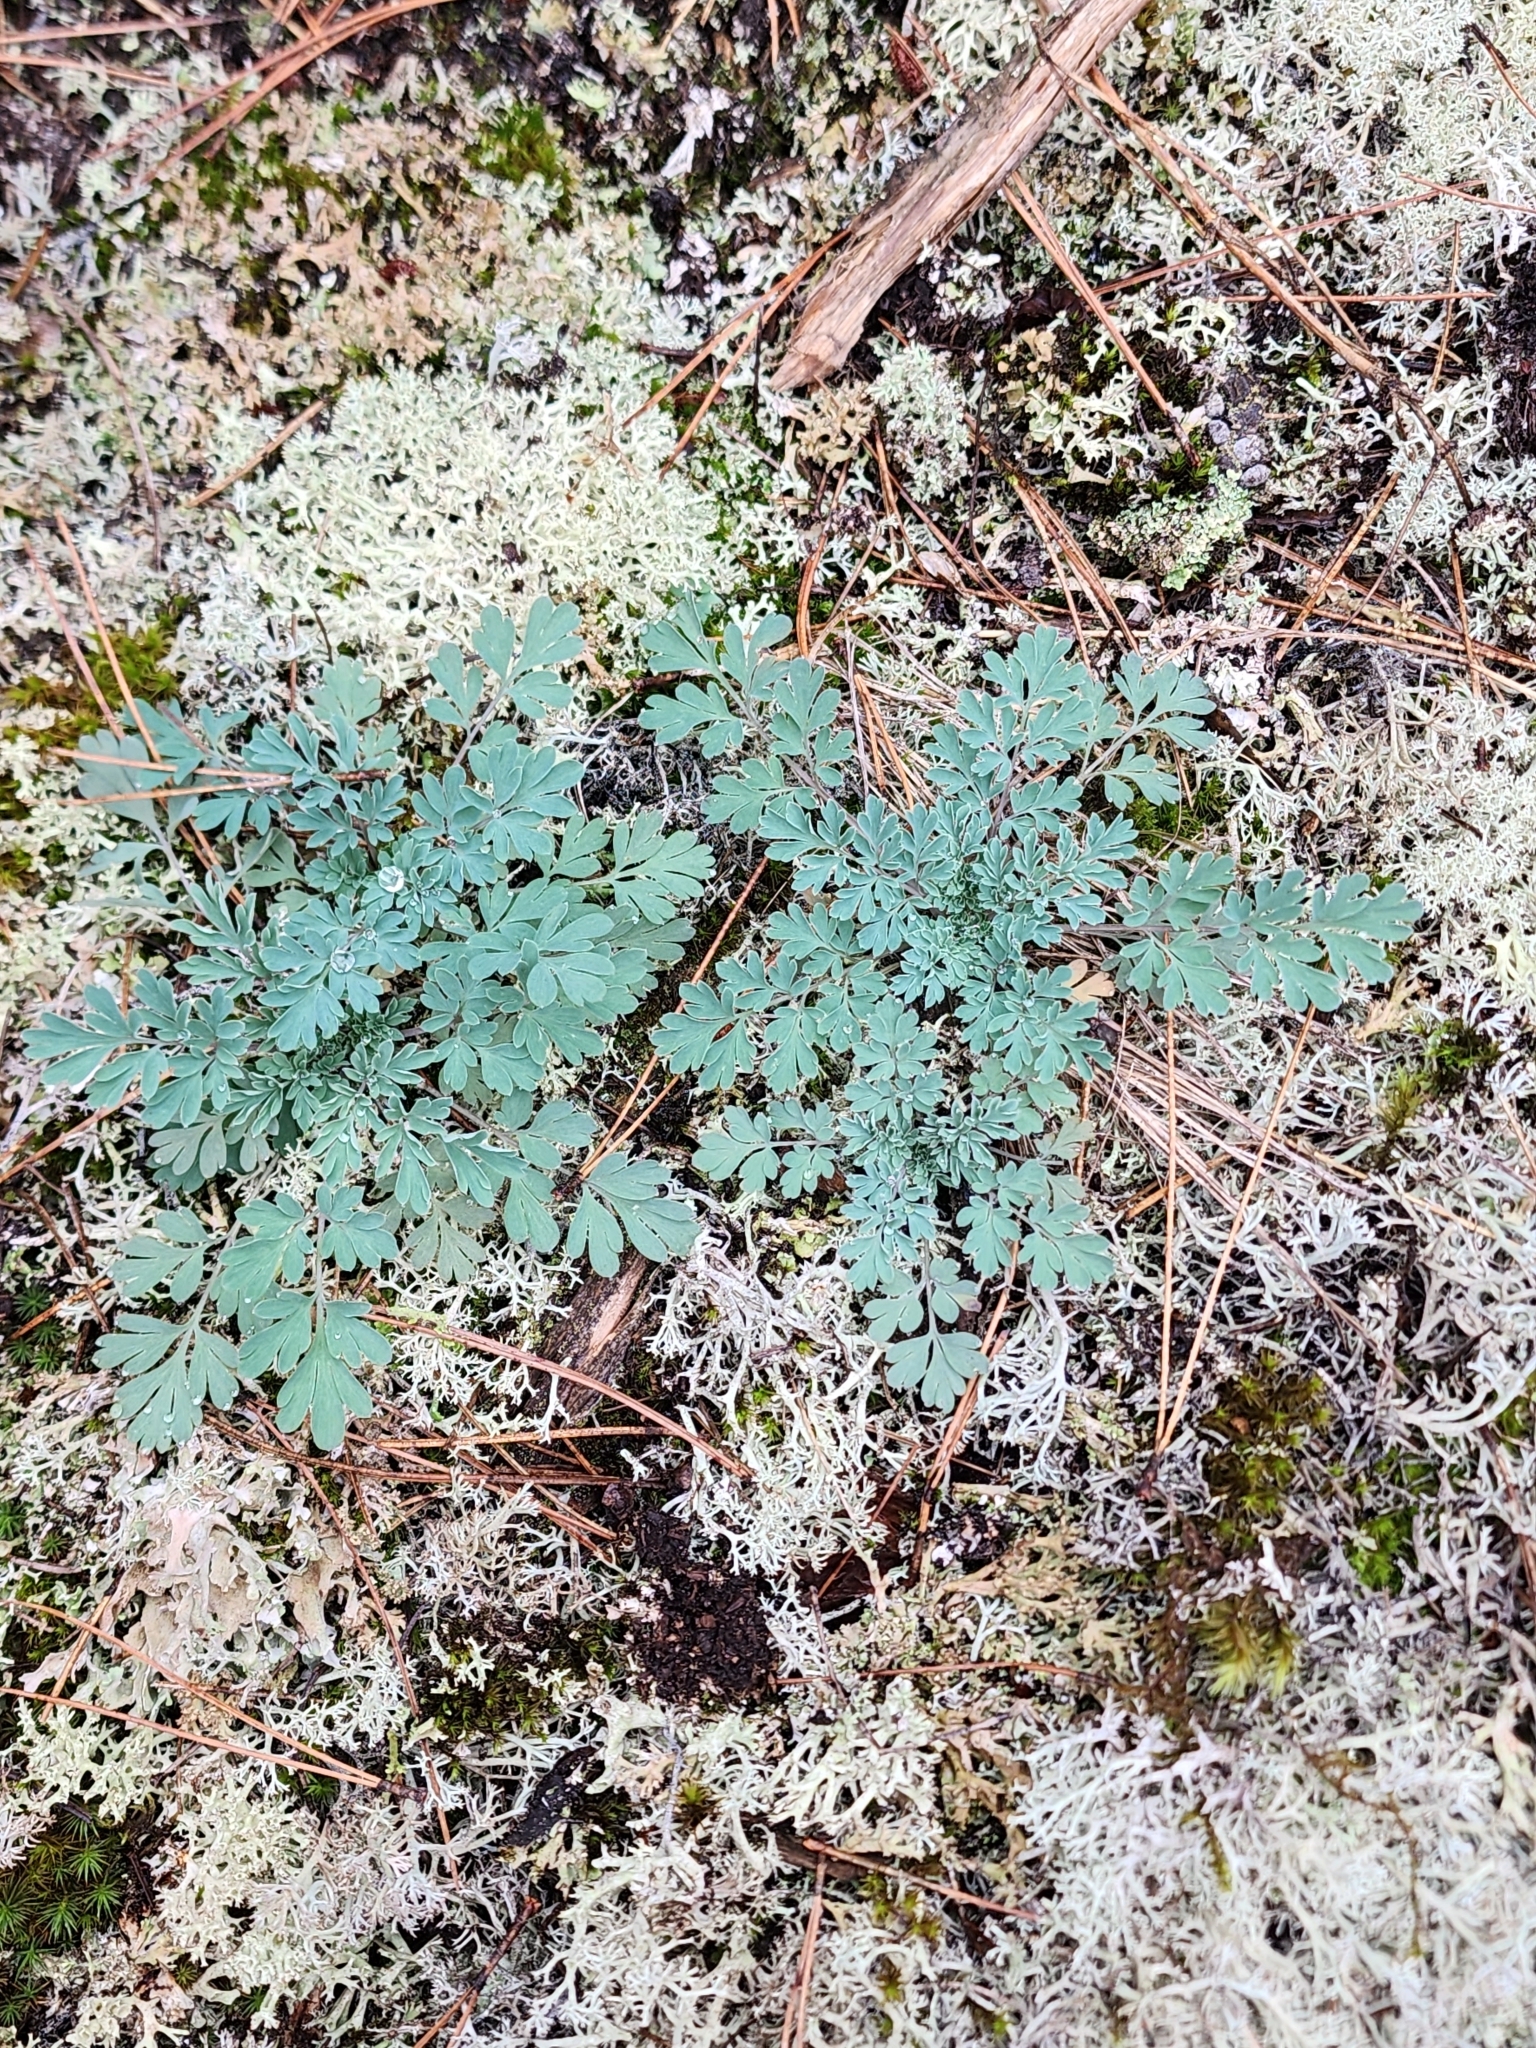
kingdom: Plantae
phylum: Tracheophyta
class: Magnoliopsida
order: Ranunculales
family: Papaveraceae
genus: Capnoides
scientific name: Capnoides sempervirens
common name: Rock harlequin
